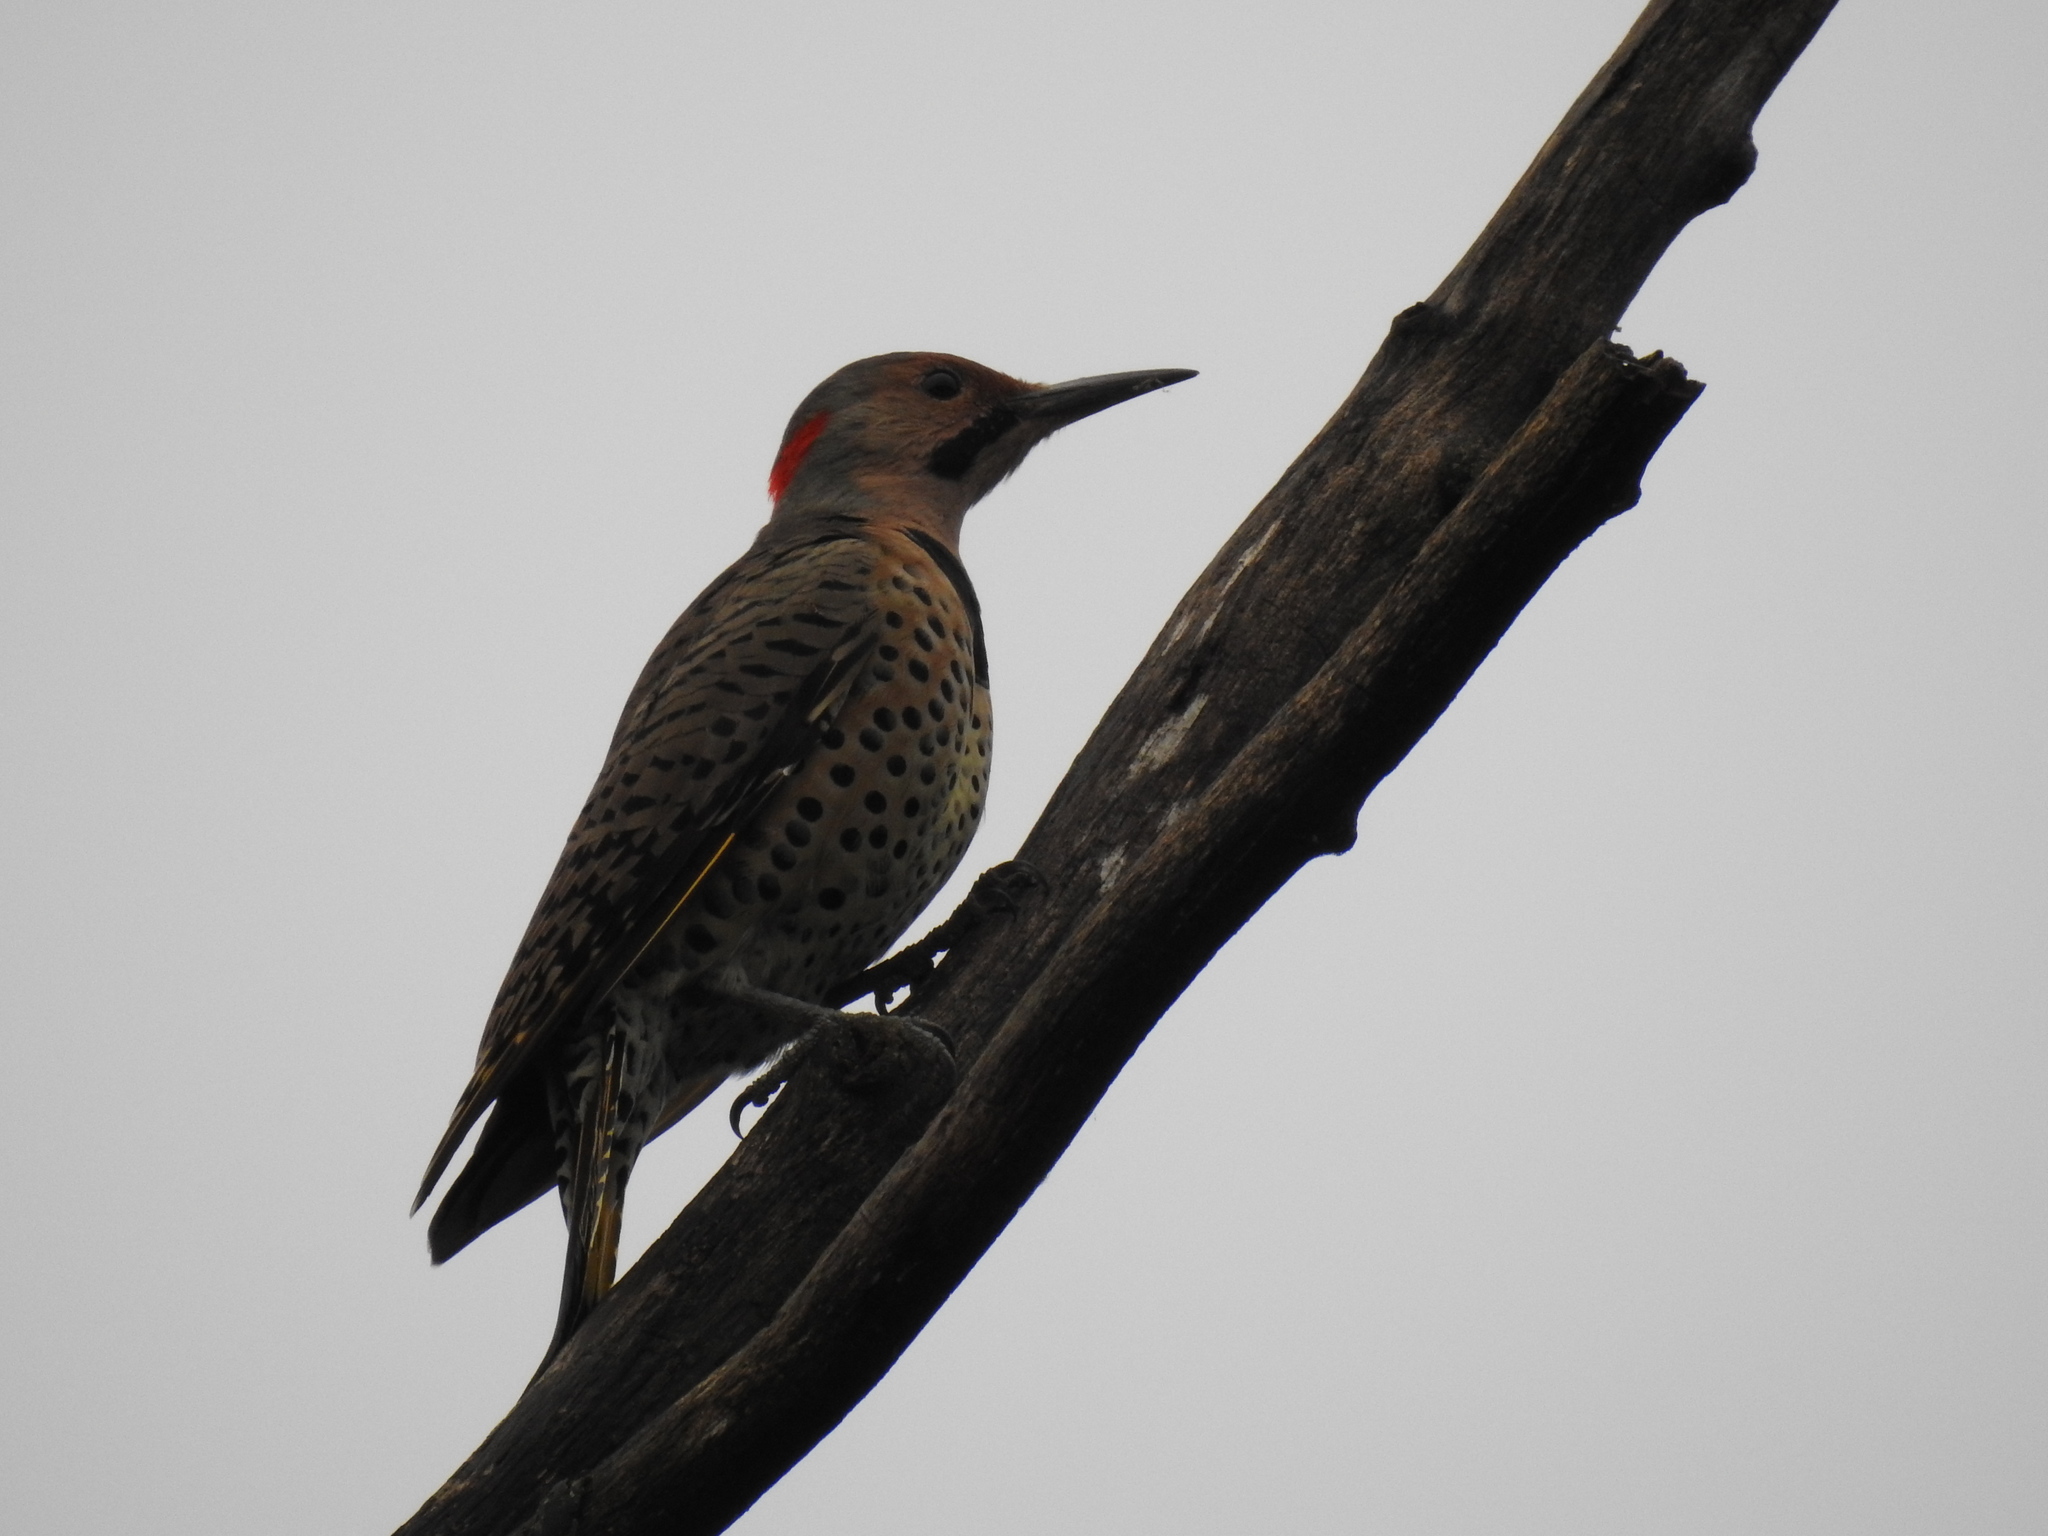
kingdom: Animalia
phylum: Chordata
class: Aves
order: Piciformes
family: Picidae
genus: Colaptes
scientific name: Colaptes auratus
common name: Northern flicker
